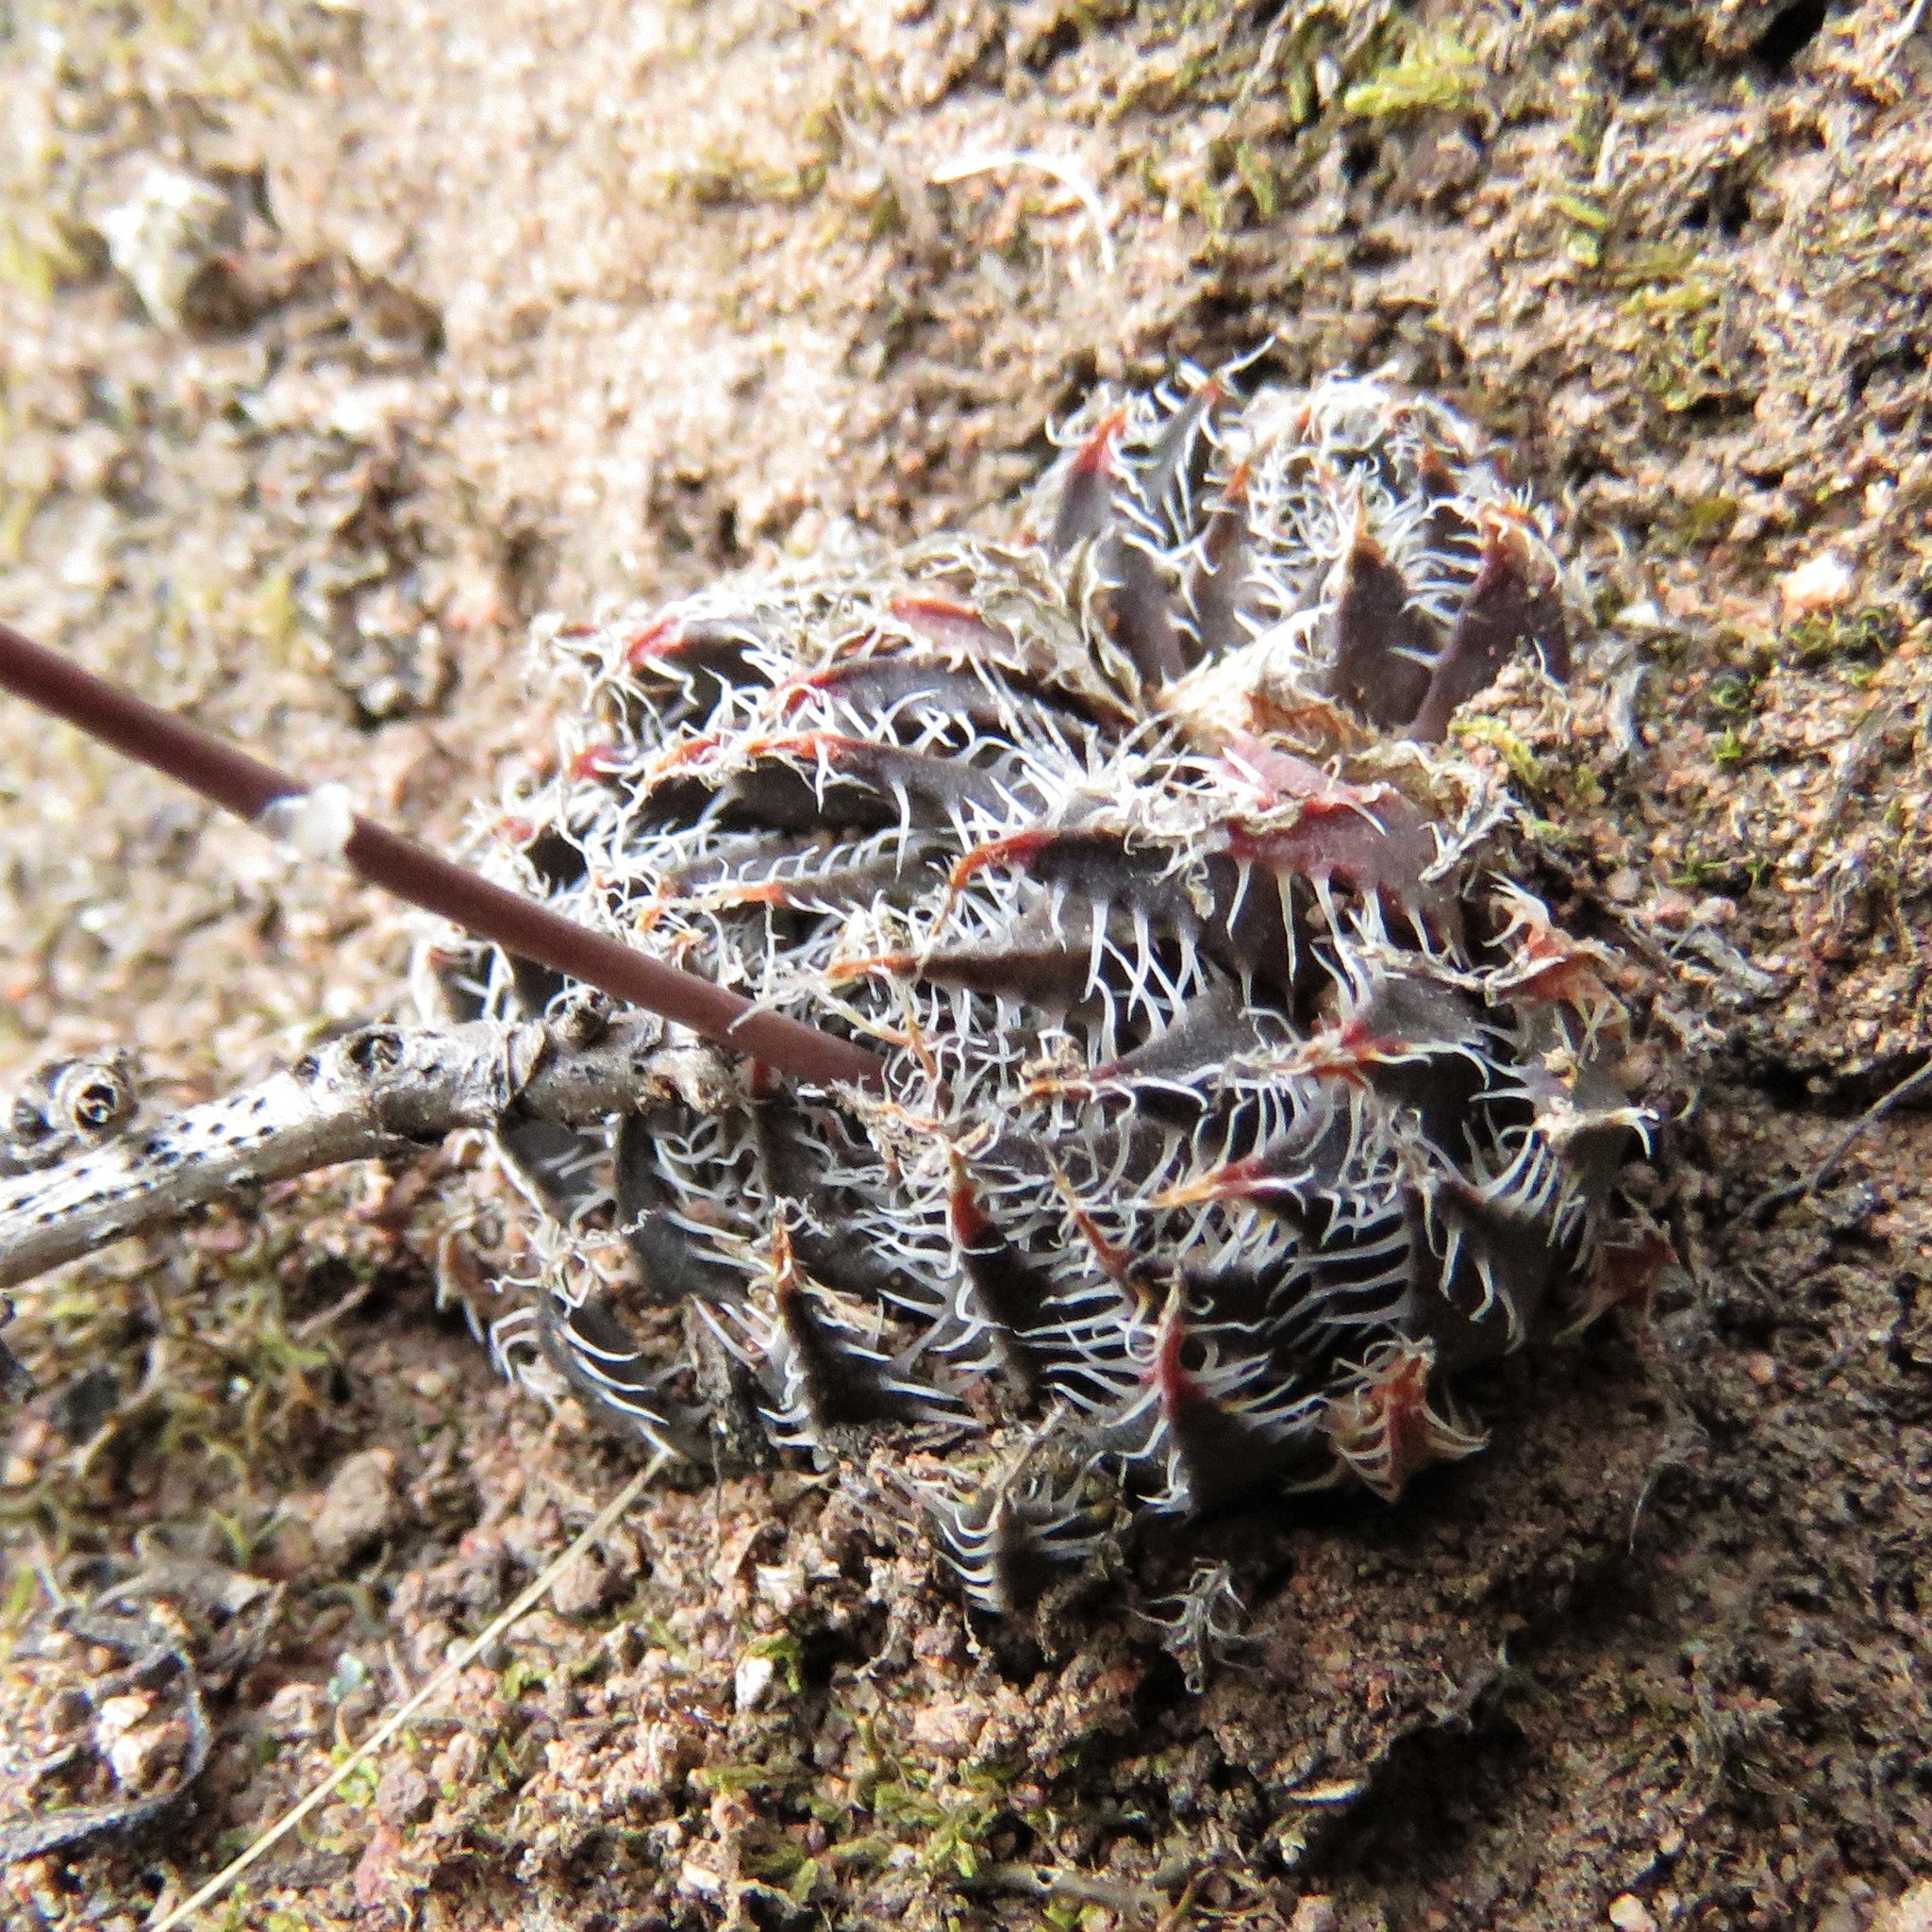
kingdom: Plantae
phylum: Tracheophyta
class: Liliopsida
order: Asparagales
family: Asphodelaceae
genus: Haworthia
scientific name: Haworthia arachnoidea
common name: Cobweb-aloe
